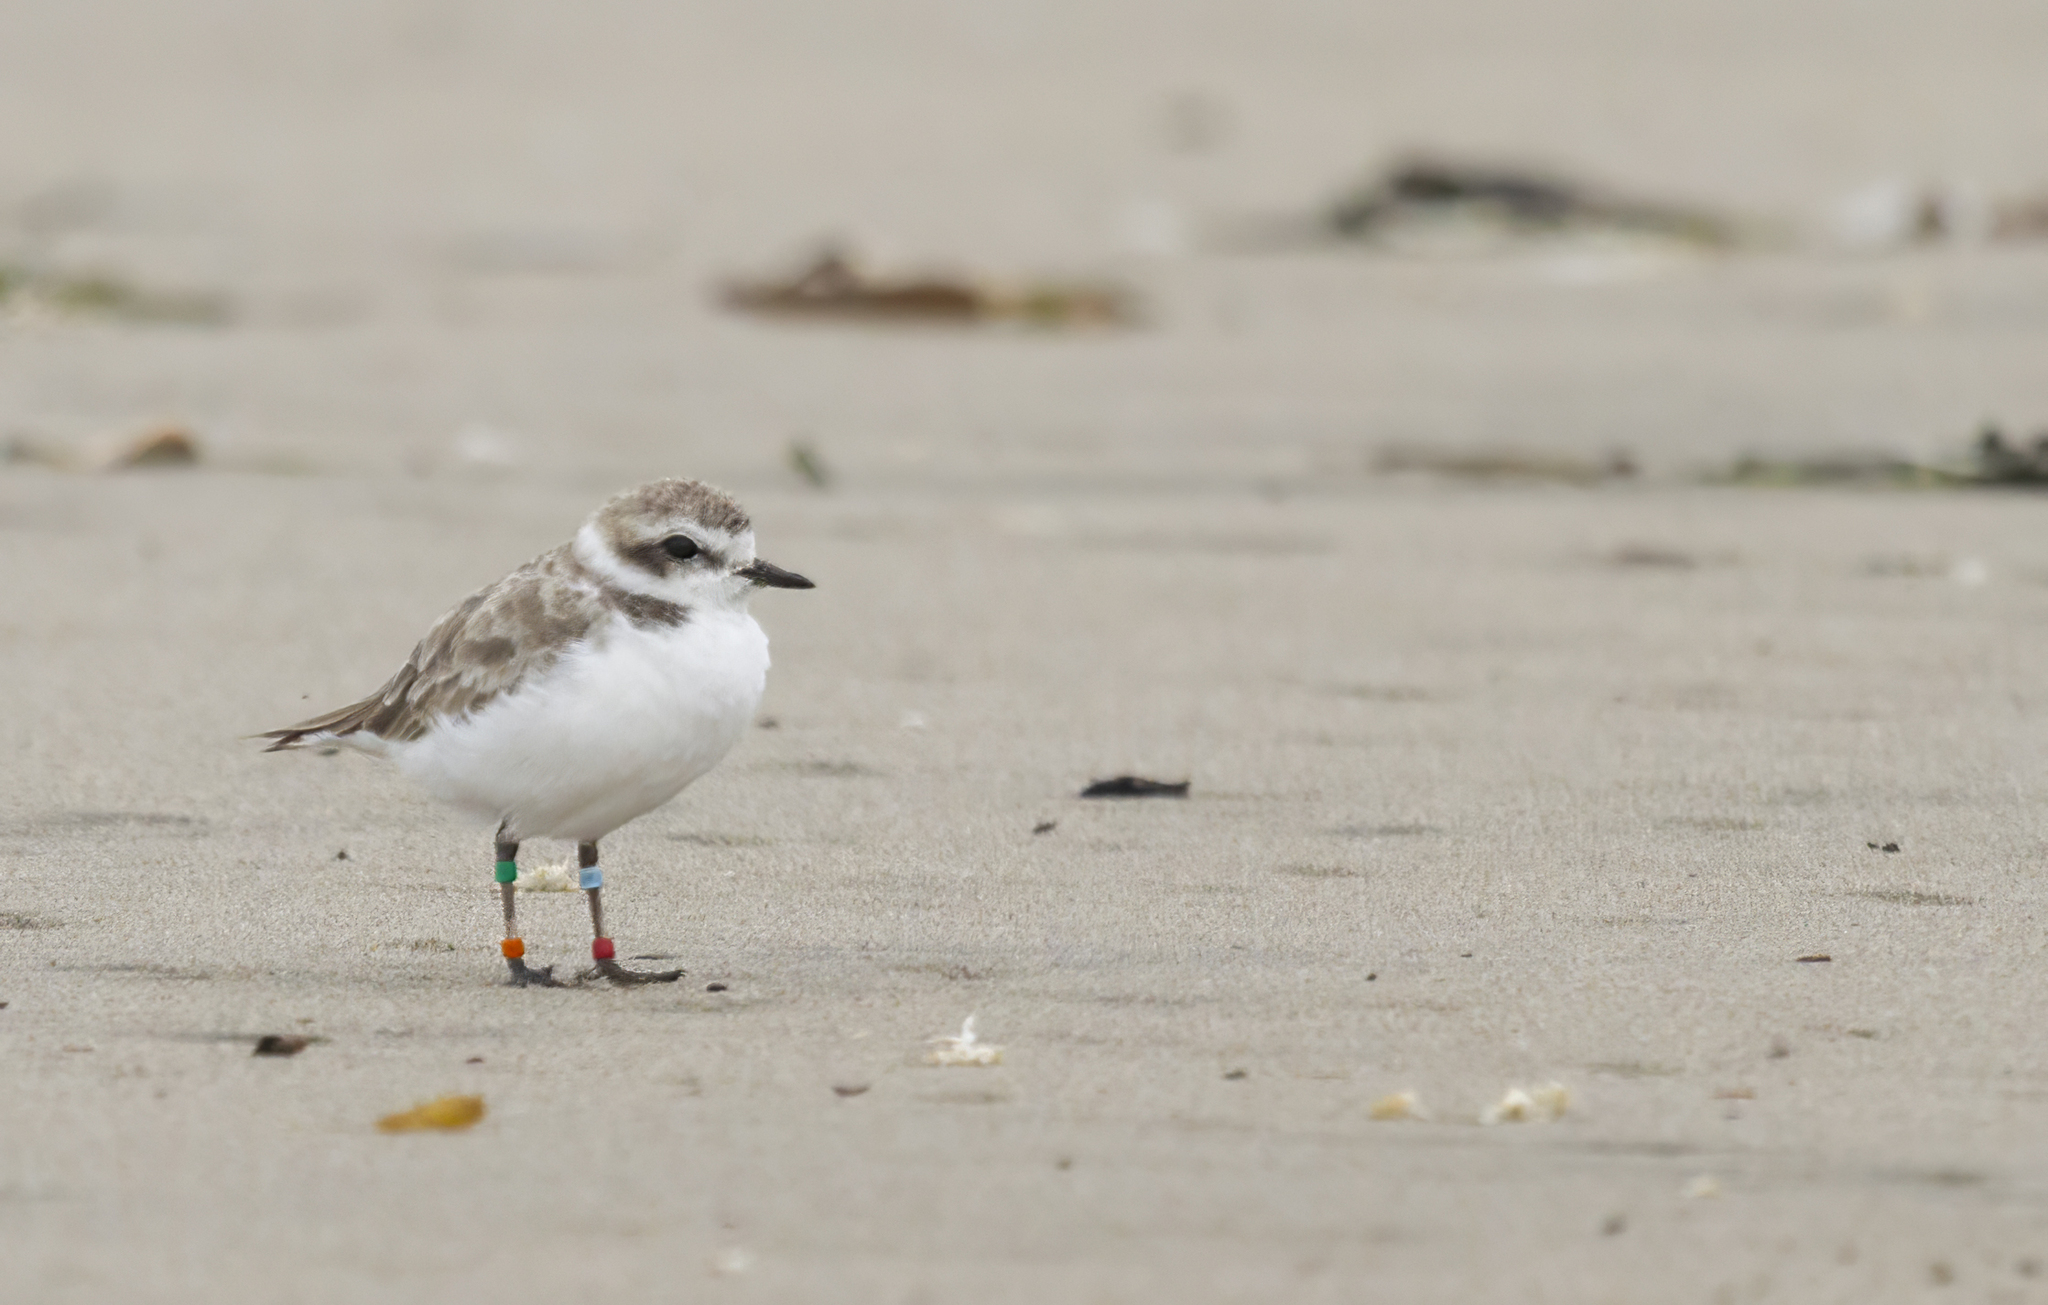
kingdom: Animalia
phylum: Chordata
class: Aves
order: Charadriiformes
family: Charadriidae
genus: Anarhynchus
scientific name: Anarhynchus
